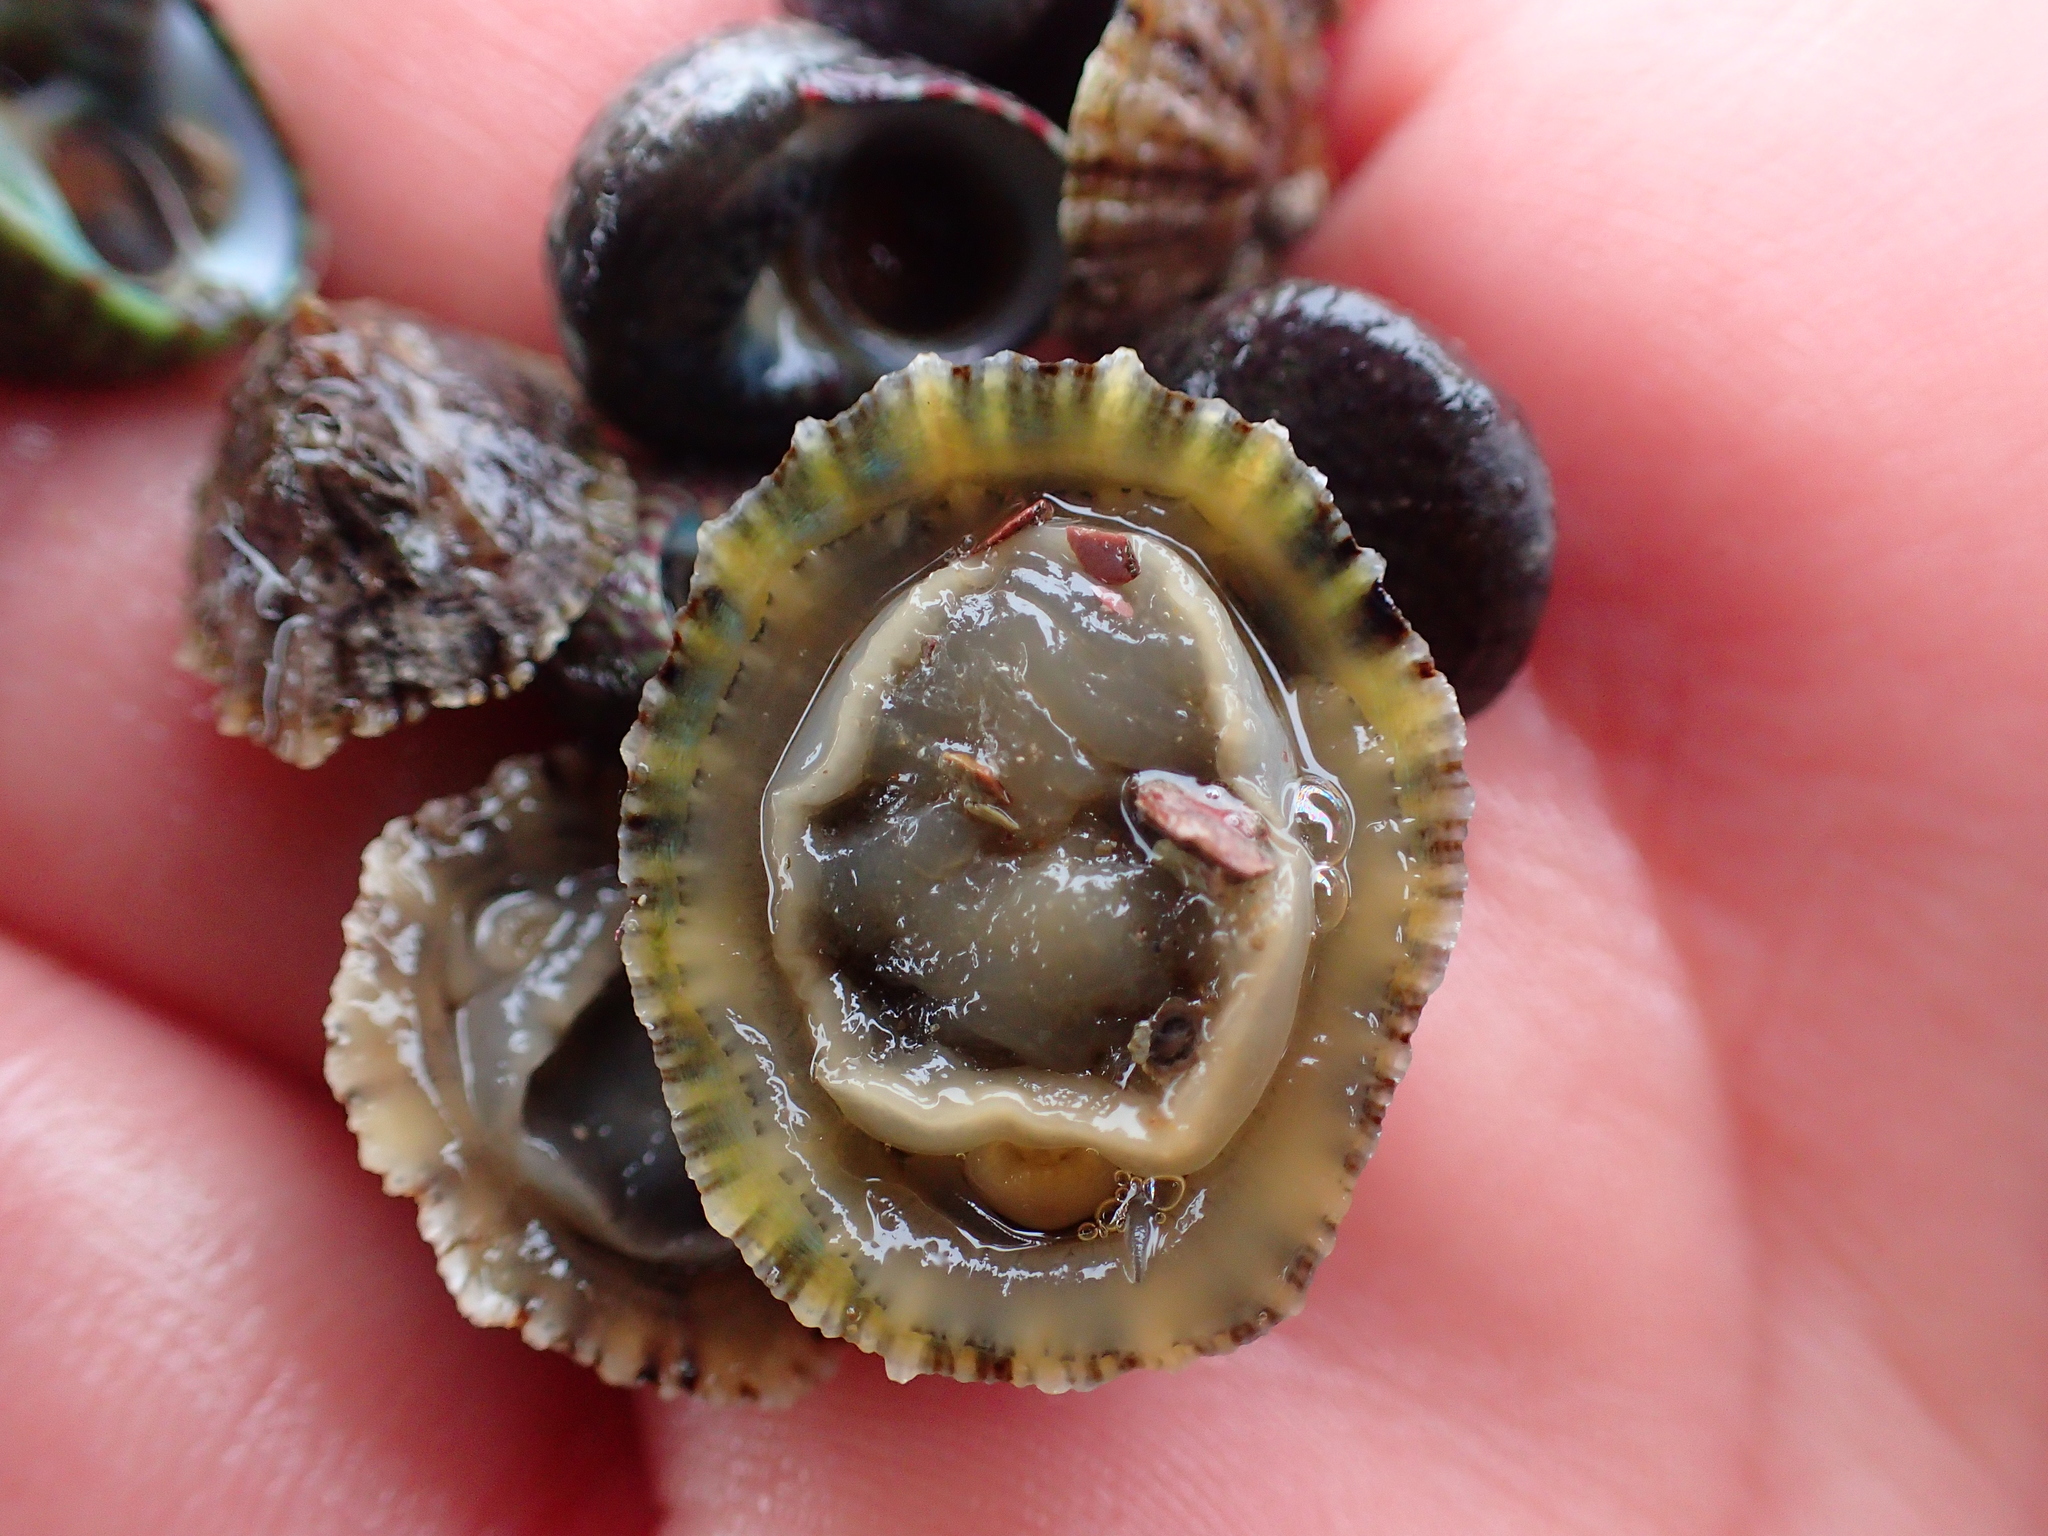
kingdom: Animalia
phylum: Mollusca
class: Gastropoda
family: Patellidae
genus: Patella
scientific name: Patella depressa
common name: Black-footed limpet
